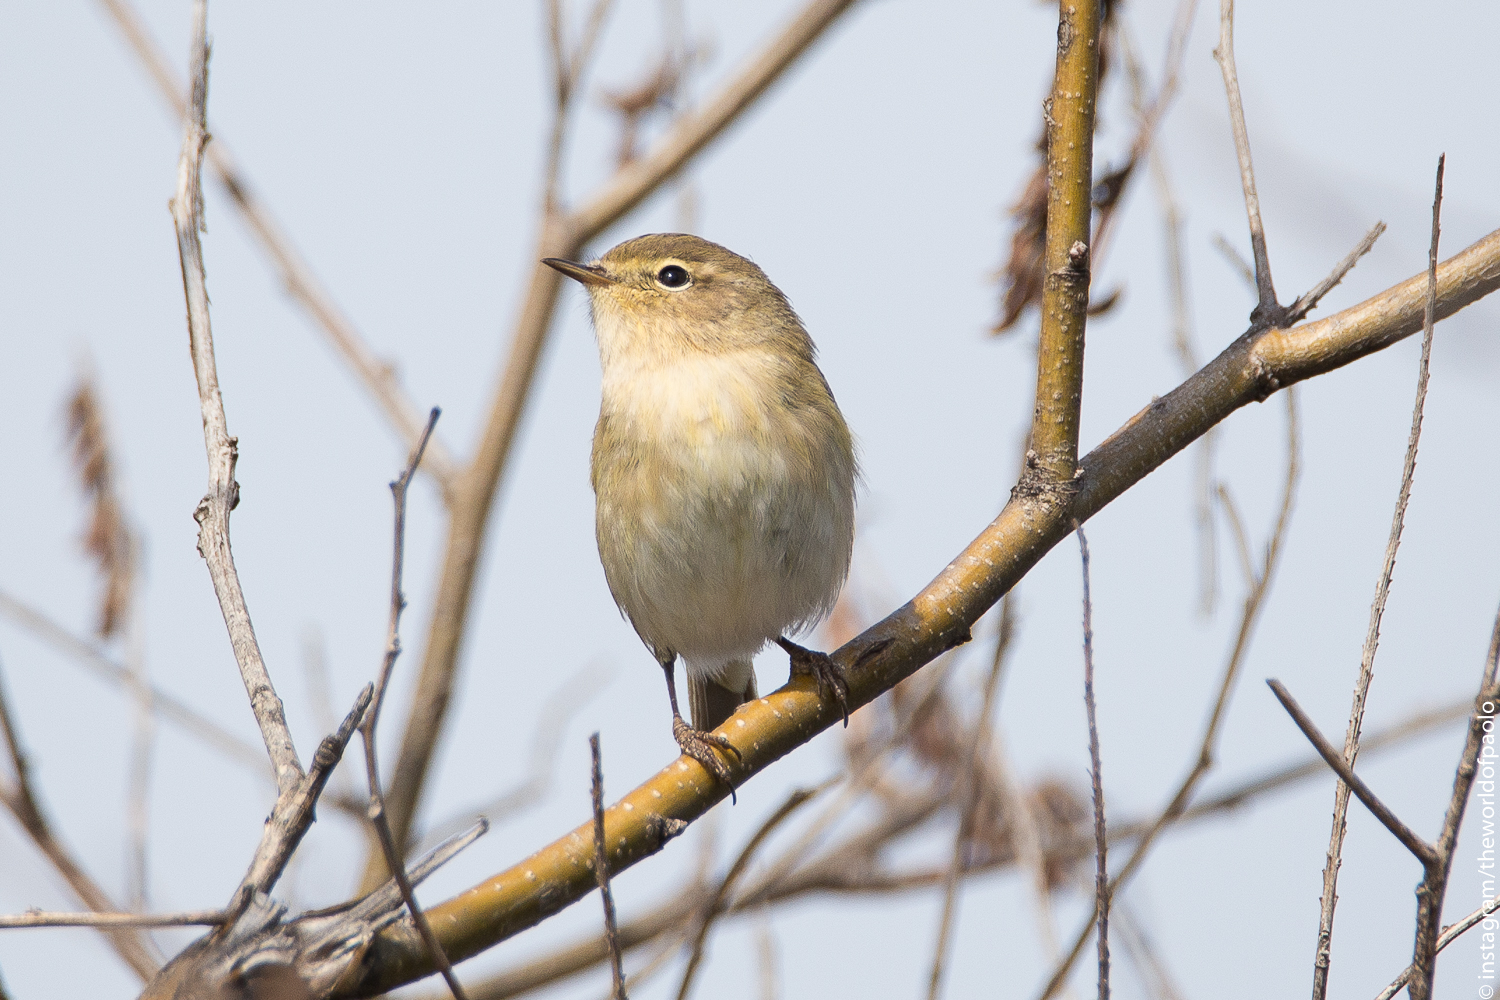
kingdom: Animalia
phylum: Chordata
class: Aves
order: Passeriformes
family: Phylloscopidae
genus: Phylloscopus
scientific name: Phylloscopus collybita
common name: Common chiffchaff
